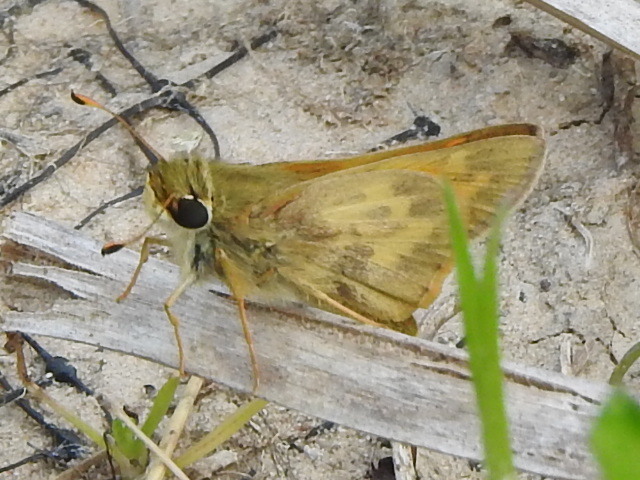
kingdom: Animalia
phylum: Arthropoda
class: Insecta
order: Lepidoptera
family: Hesperiidae
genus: Atalopedes
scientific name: Atalopedes
